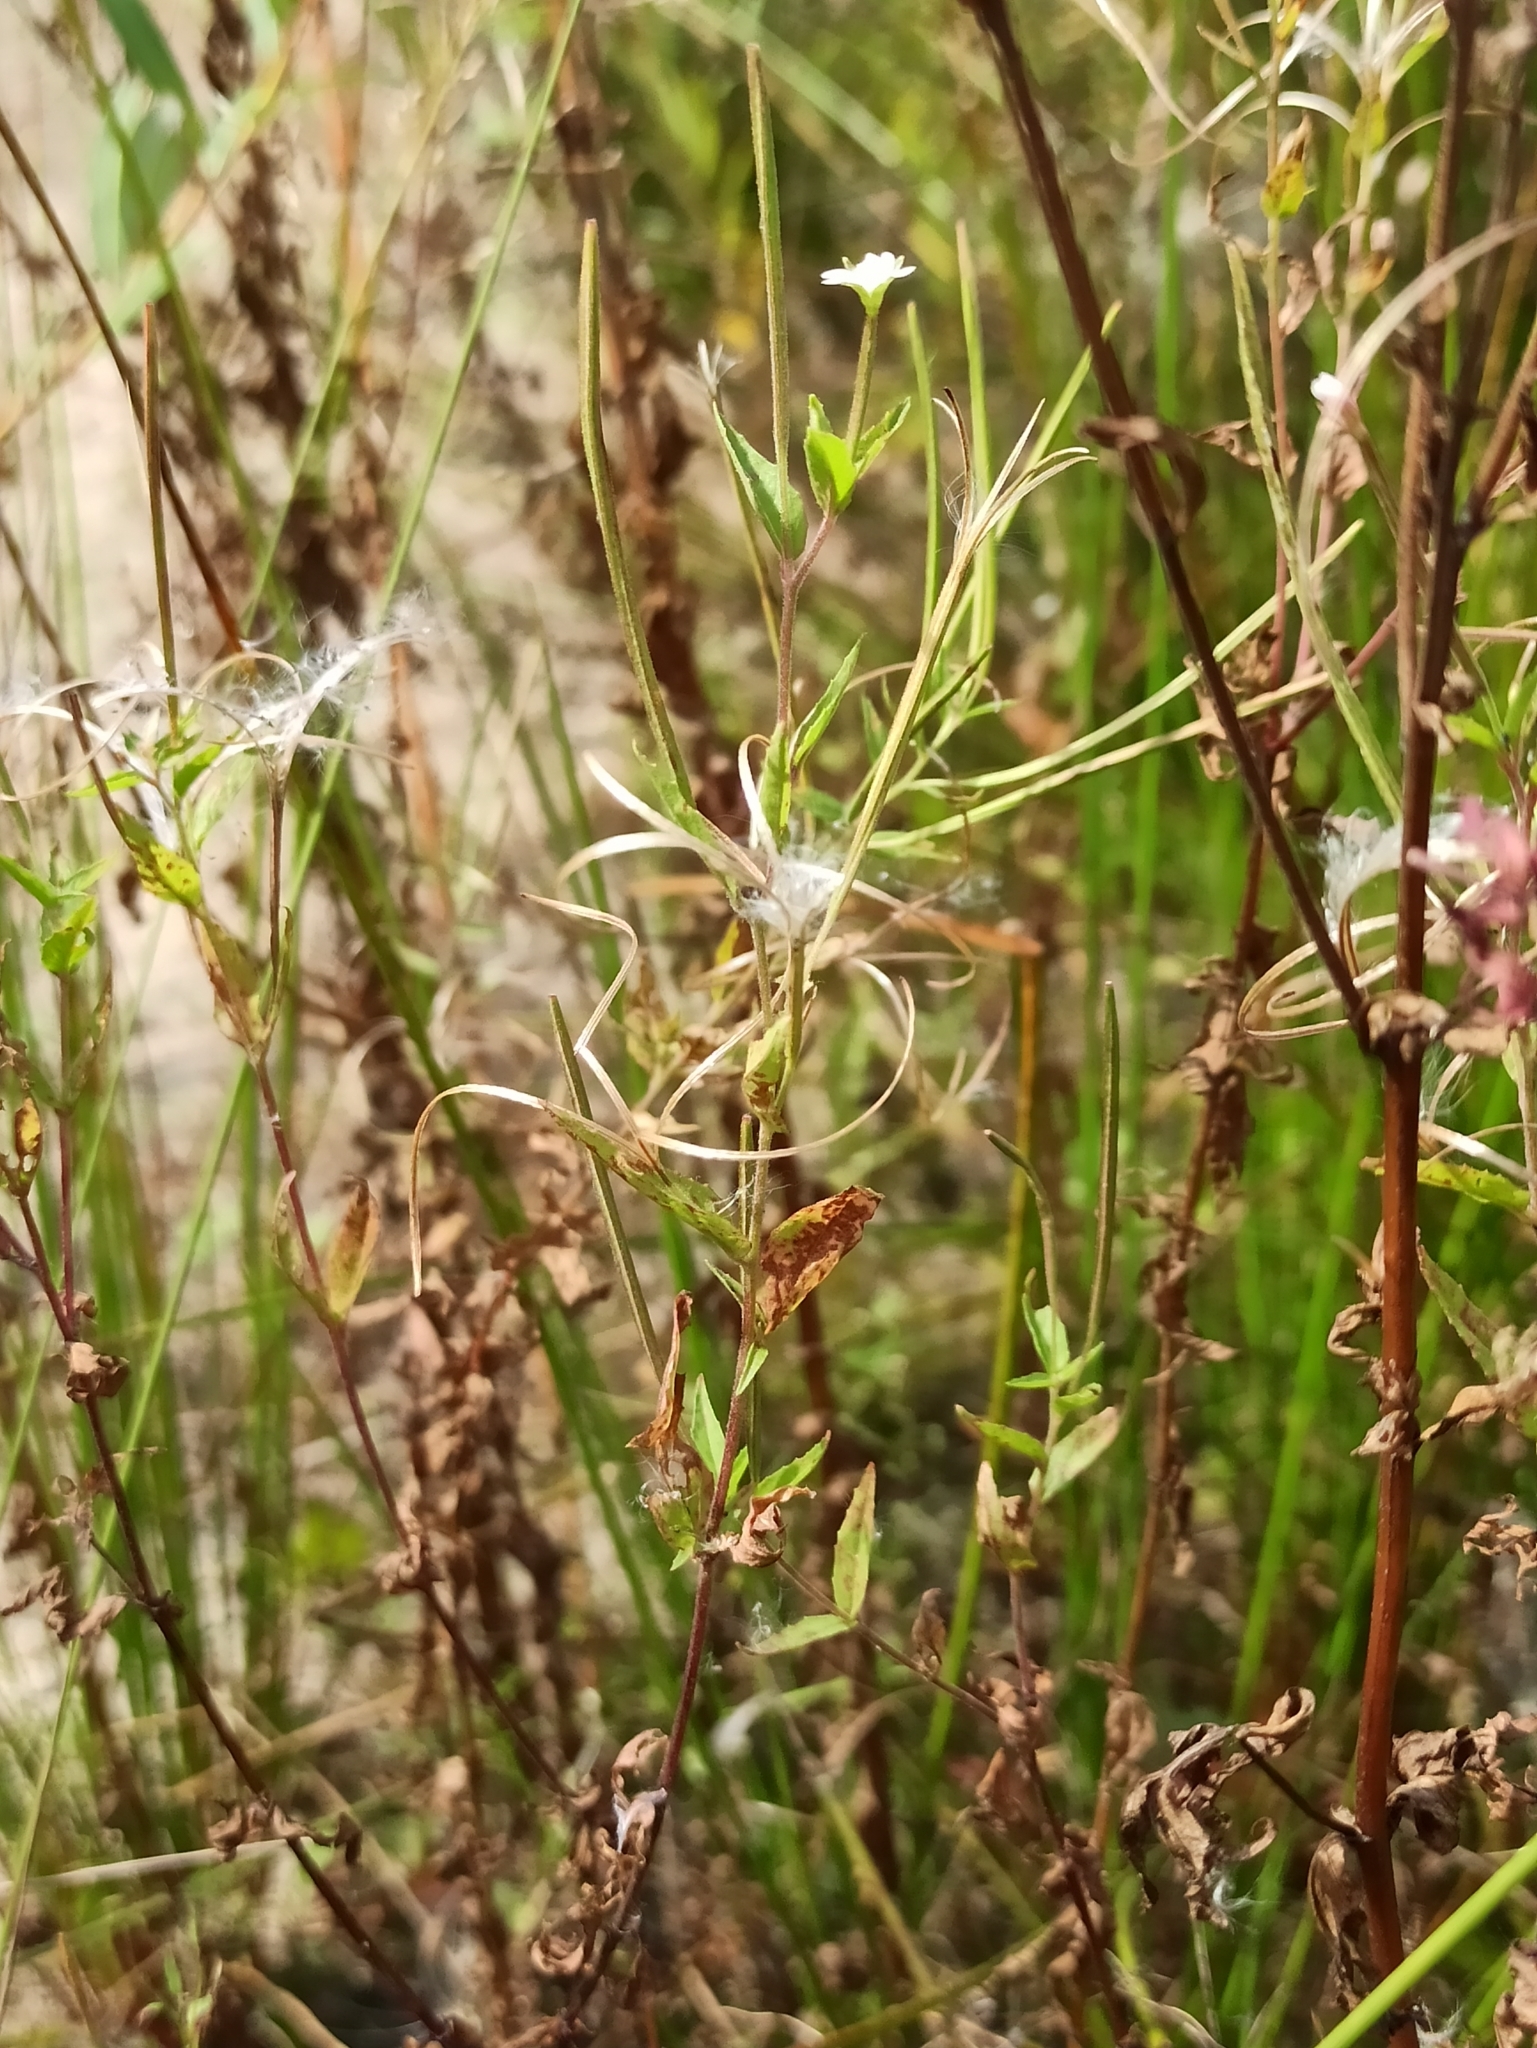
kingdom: Plantae
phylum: Tracheophyta
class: Magnoliopsida
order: Myrtales
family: Onagraceae
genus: Epilobium
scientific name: Epilobium pseudorubescens
